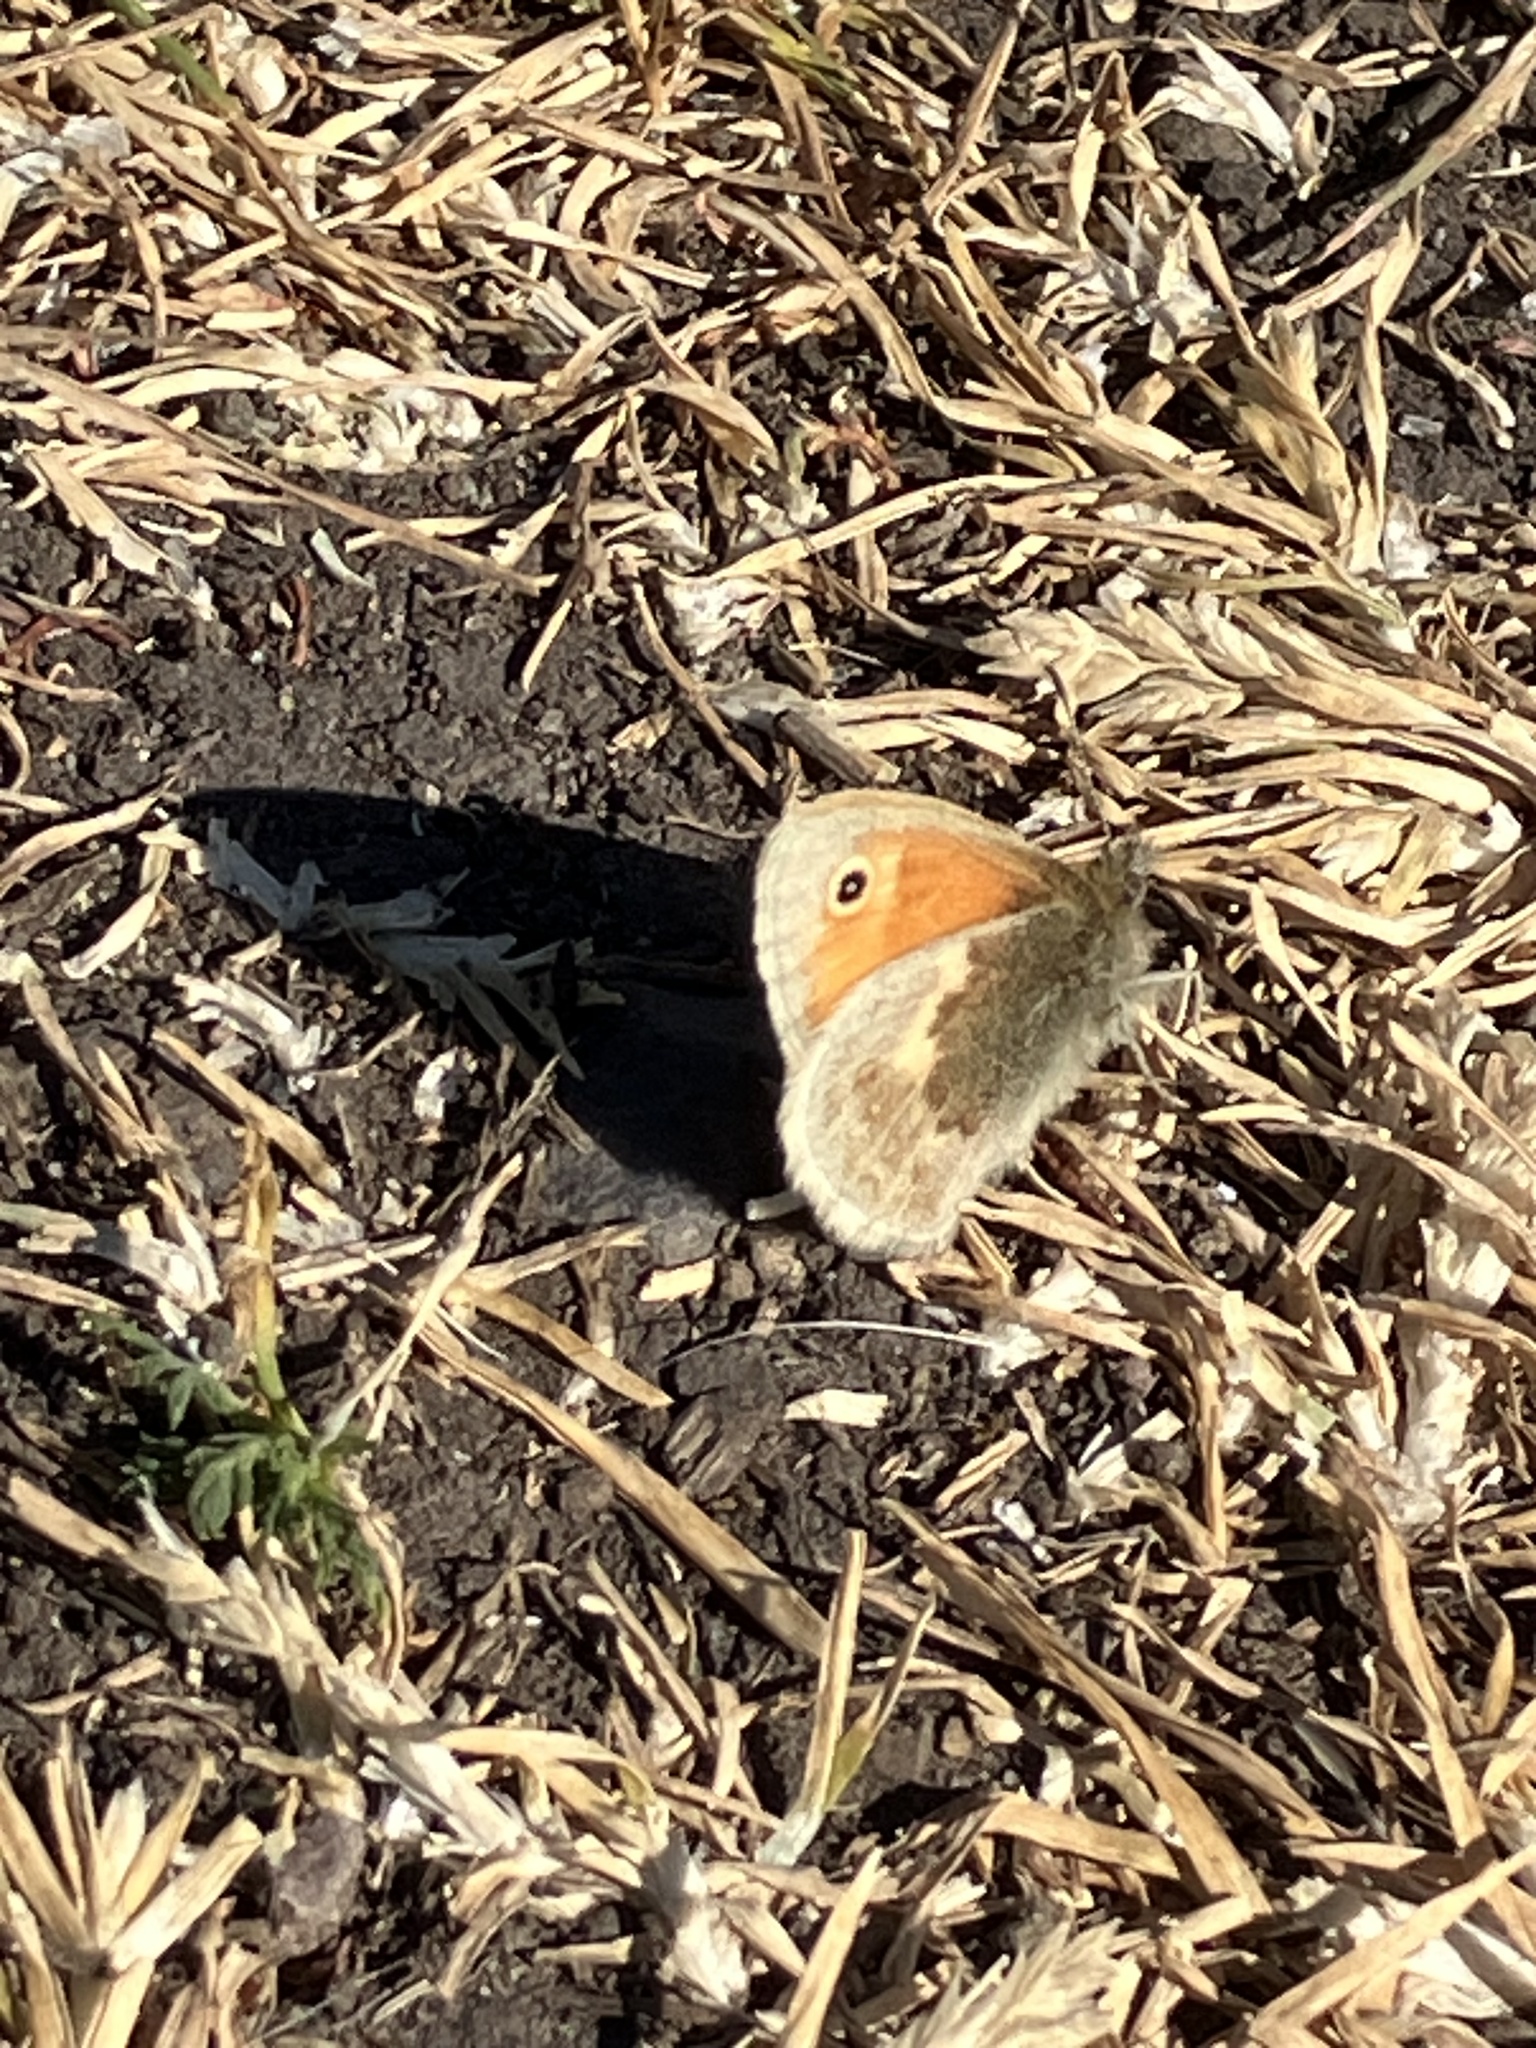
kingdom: Animalia
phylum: Arthropoda
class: Insecta
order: Lepidoptera
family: Nymphalidae
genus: Coenonympha
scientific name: Coenonympha pamphilus
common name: Small heath
